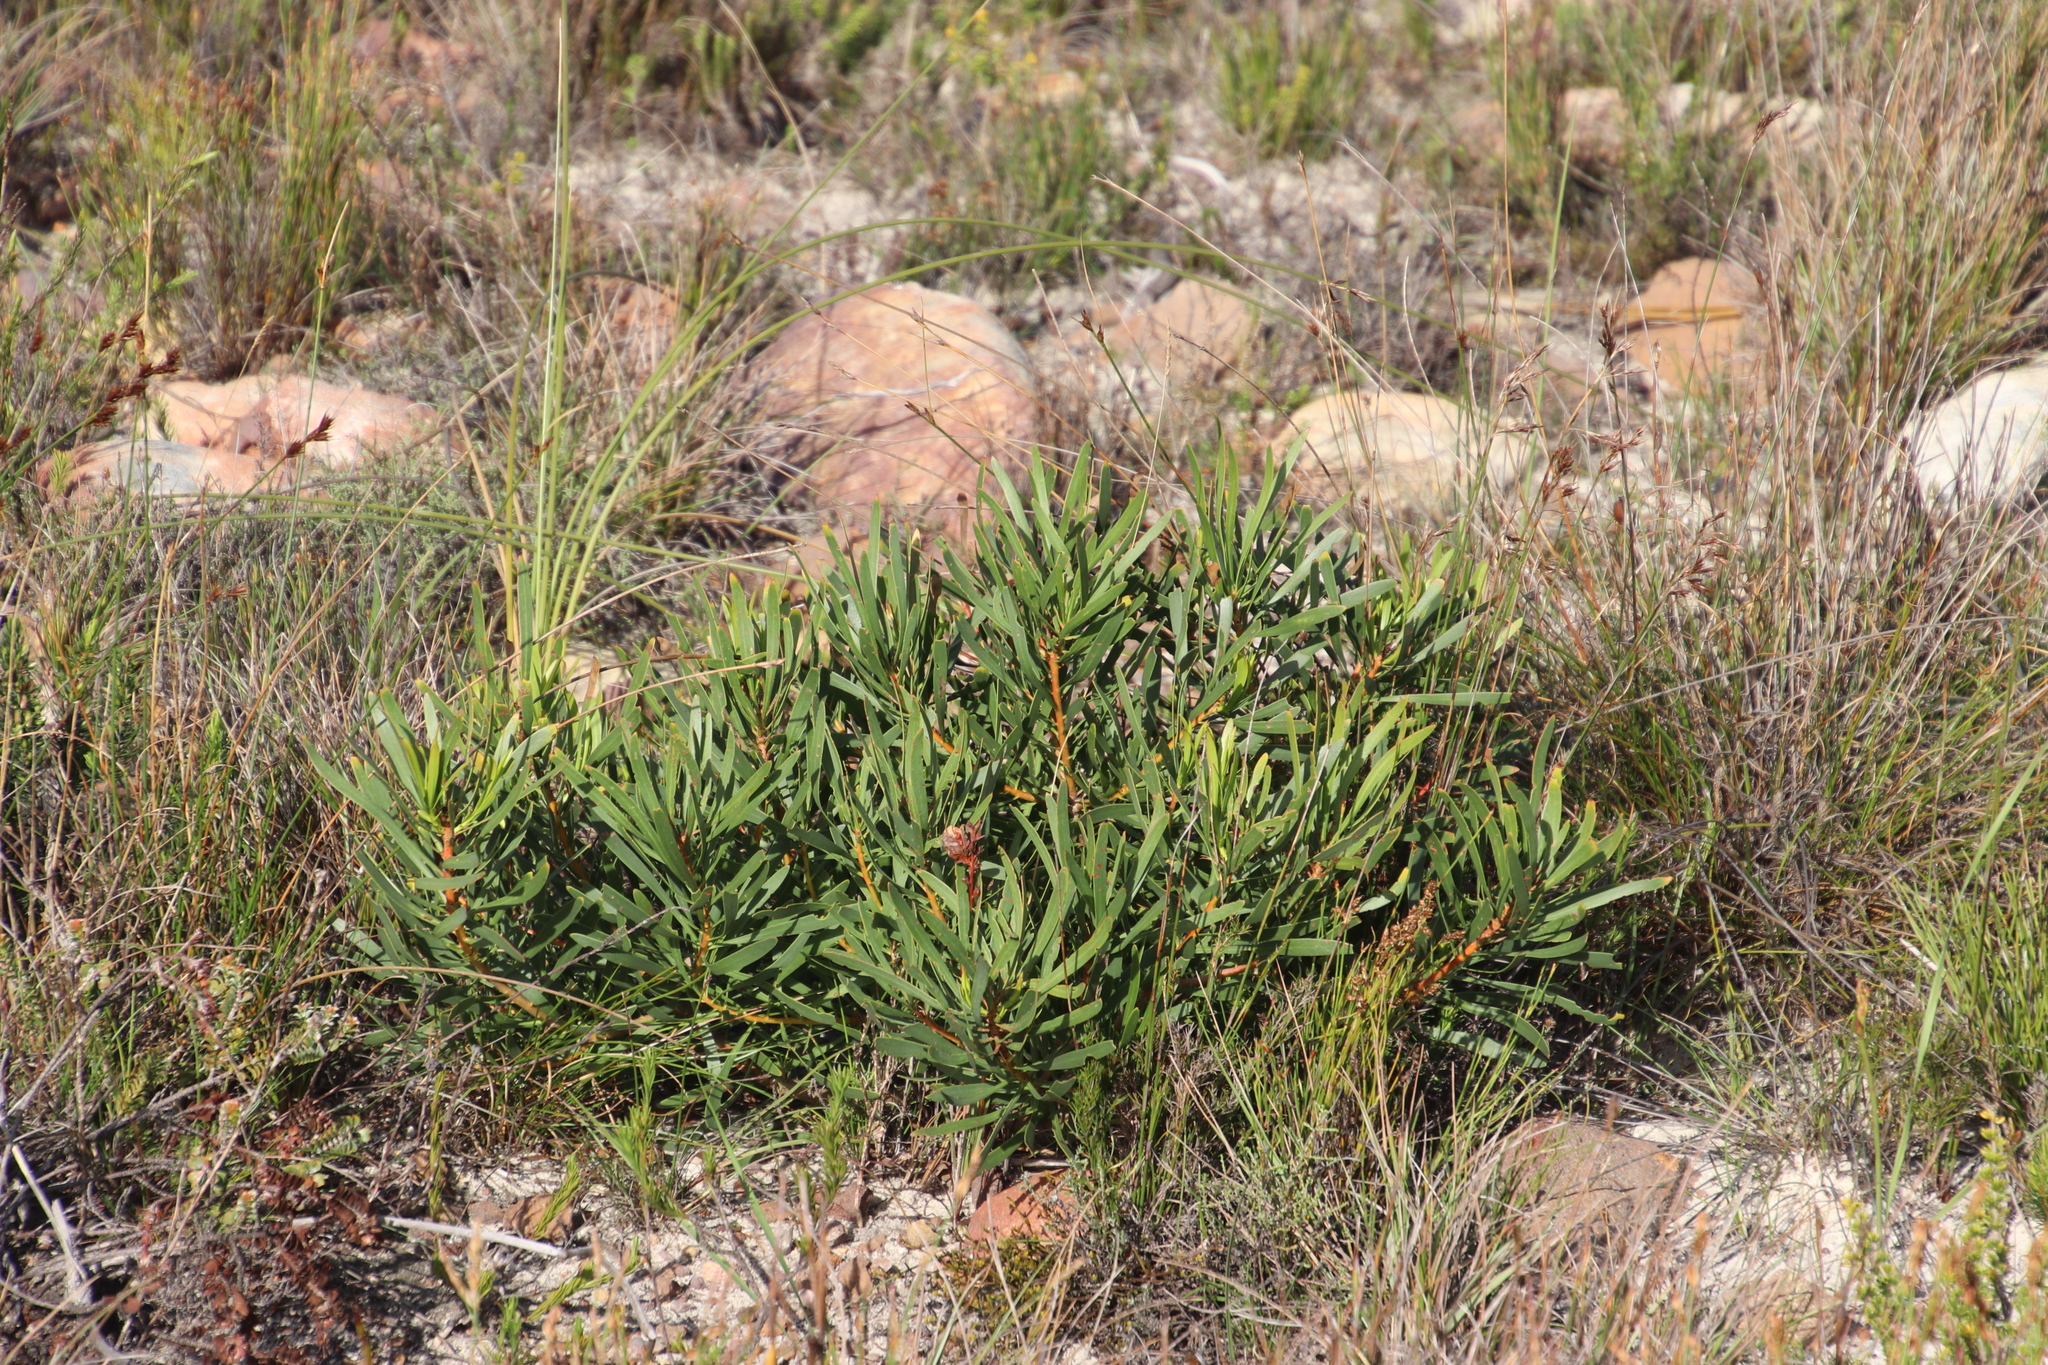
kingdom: Plantae
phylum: Tracheophyta
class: Magnoliopsida
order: Proteales
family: Proteaceae
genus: Protea
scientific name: Protea repens
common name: Sugarbush
